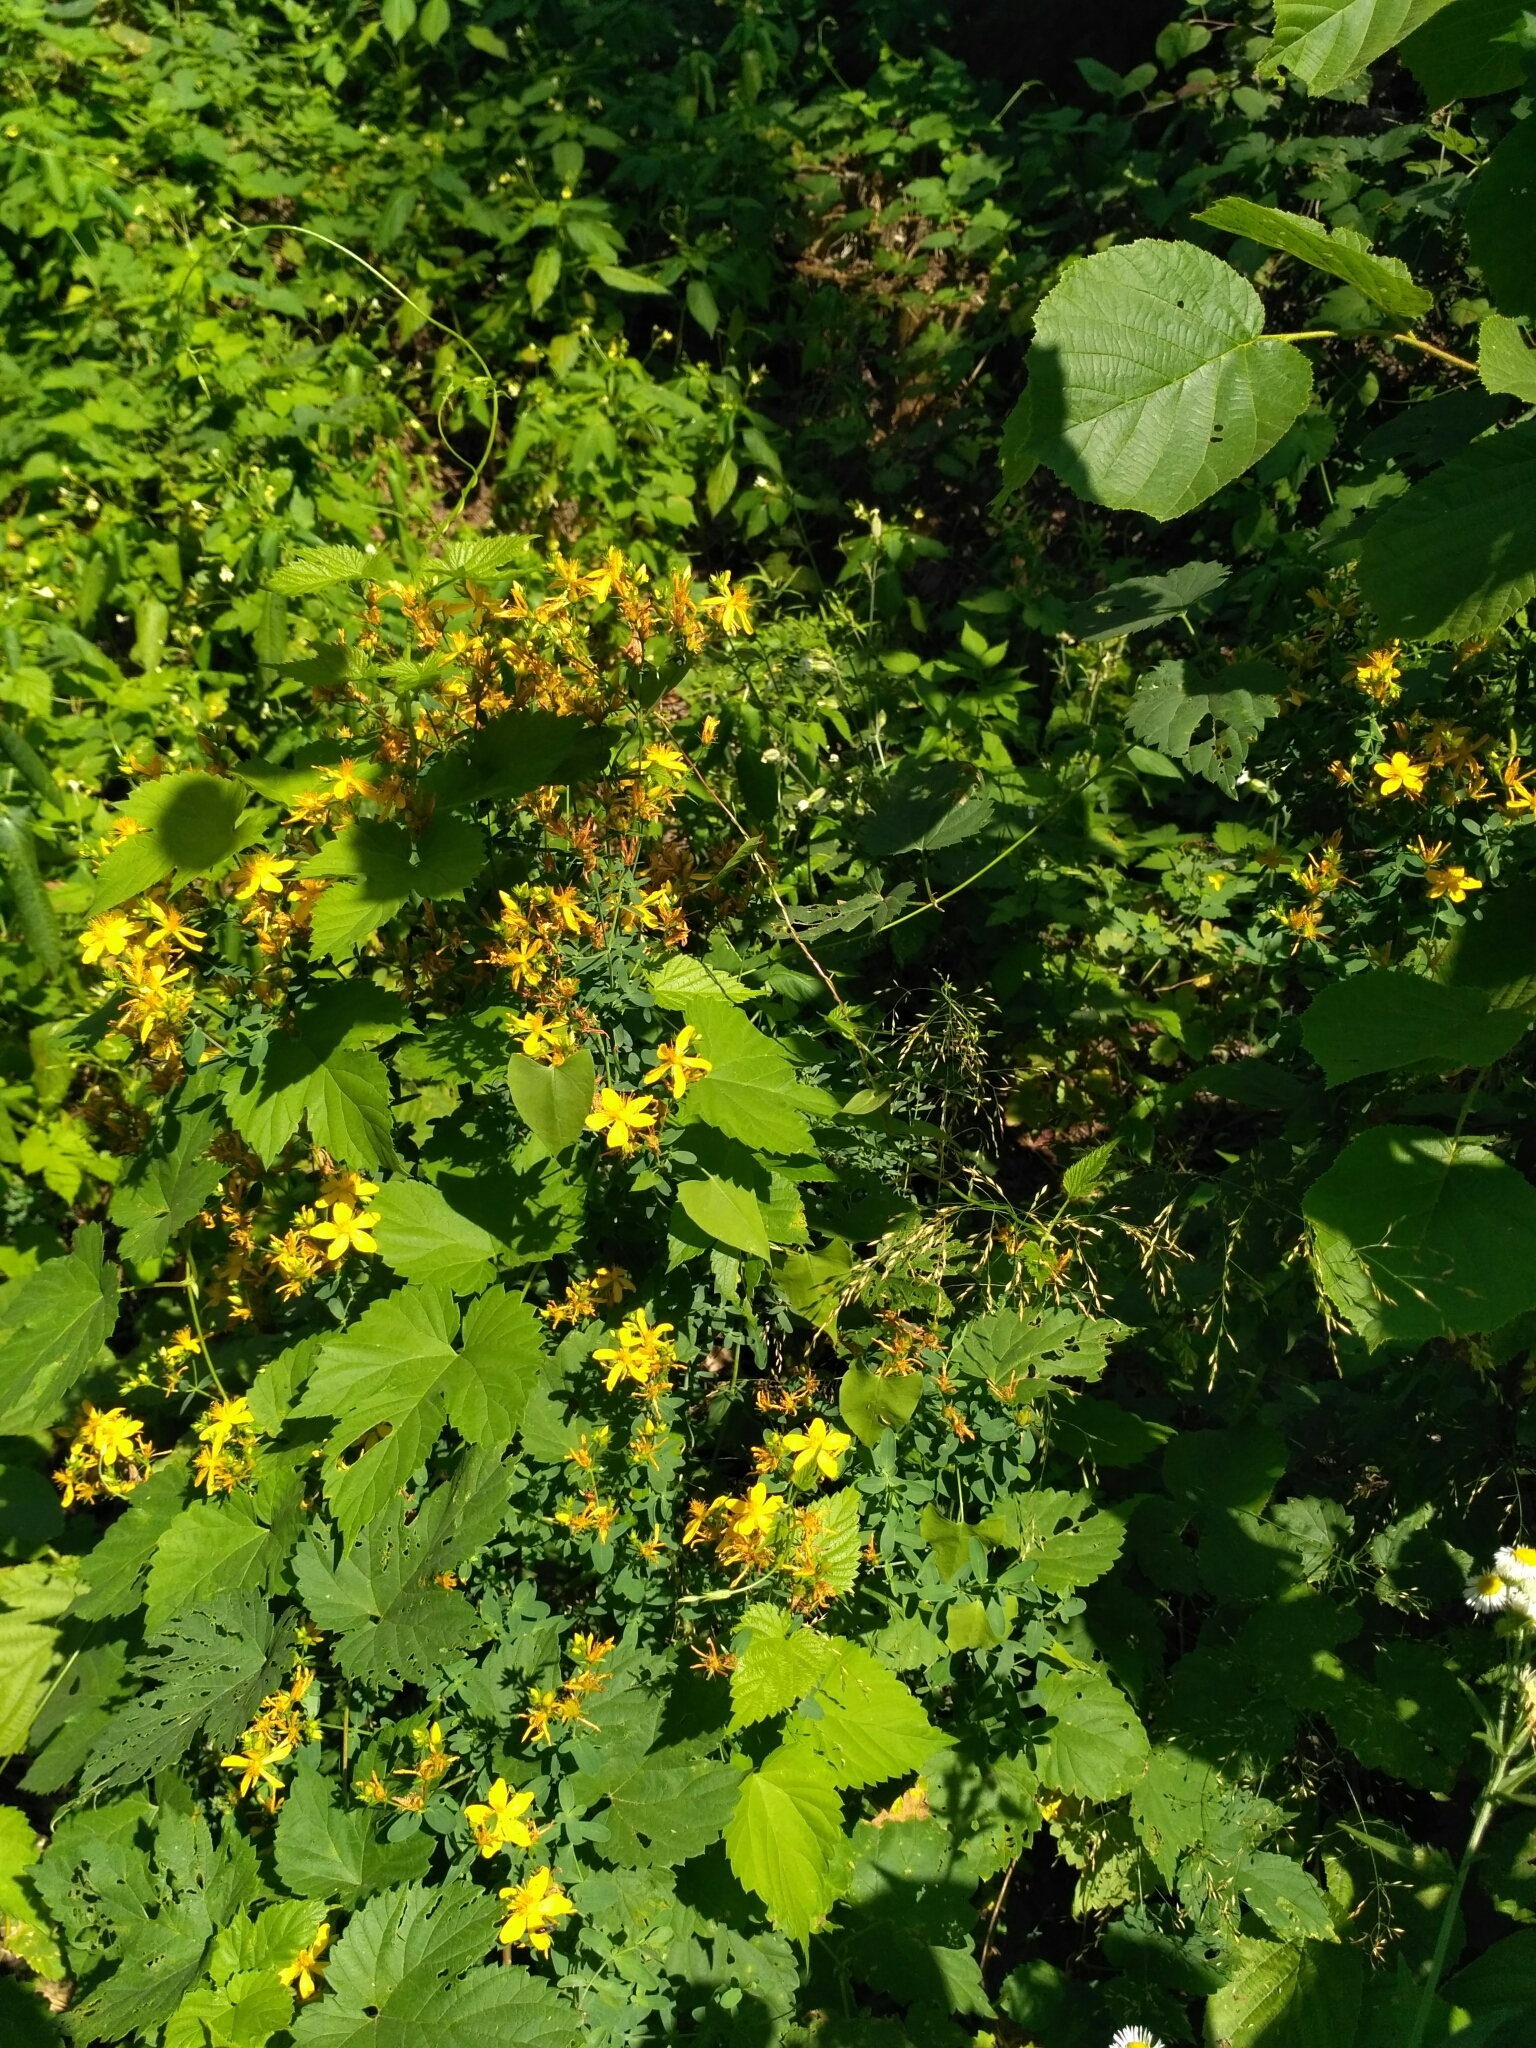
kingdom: Plantae
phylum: Tracheophyta
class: Magnoliopsida
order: Malpighiales
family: Hypericaceae
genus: Hypericum
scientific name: Hypericum perforatum
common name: Common st. johnswort
